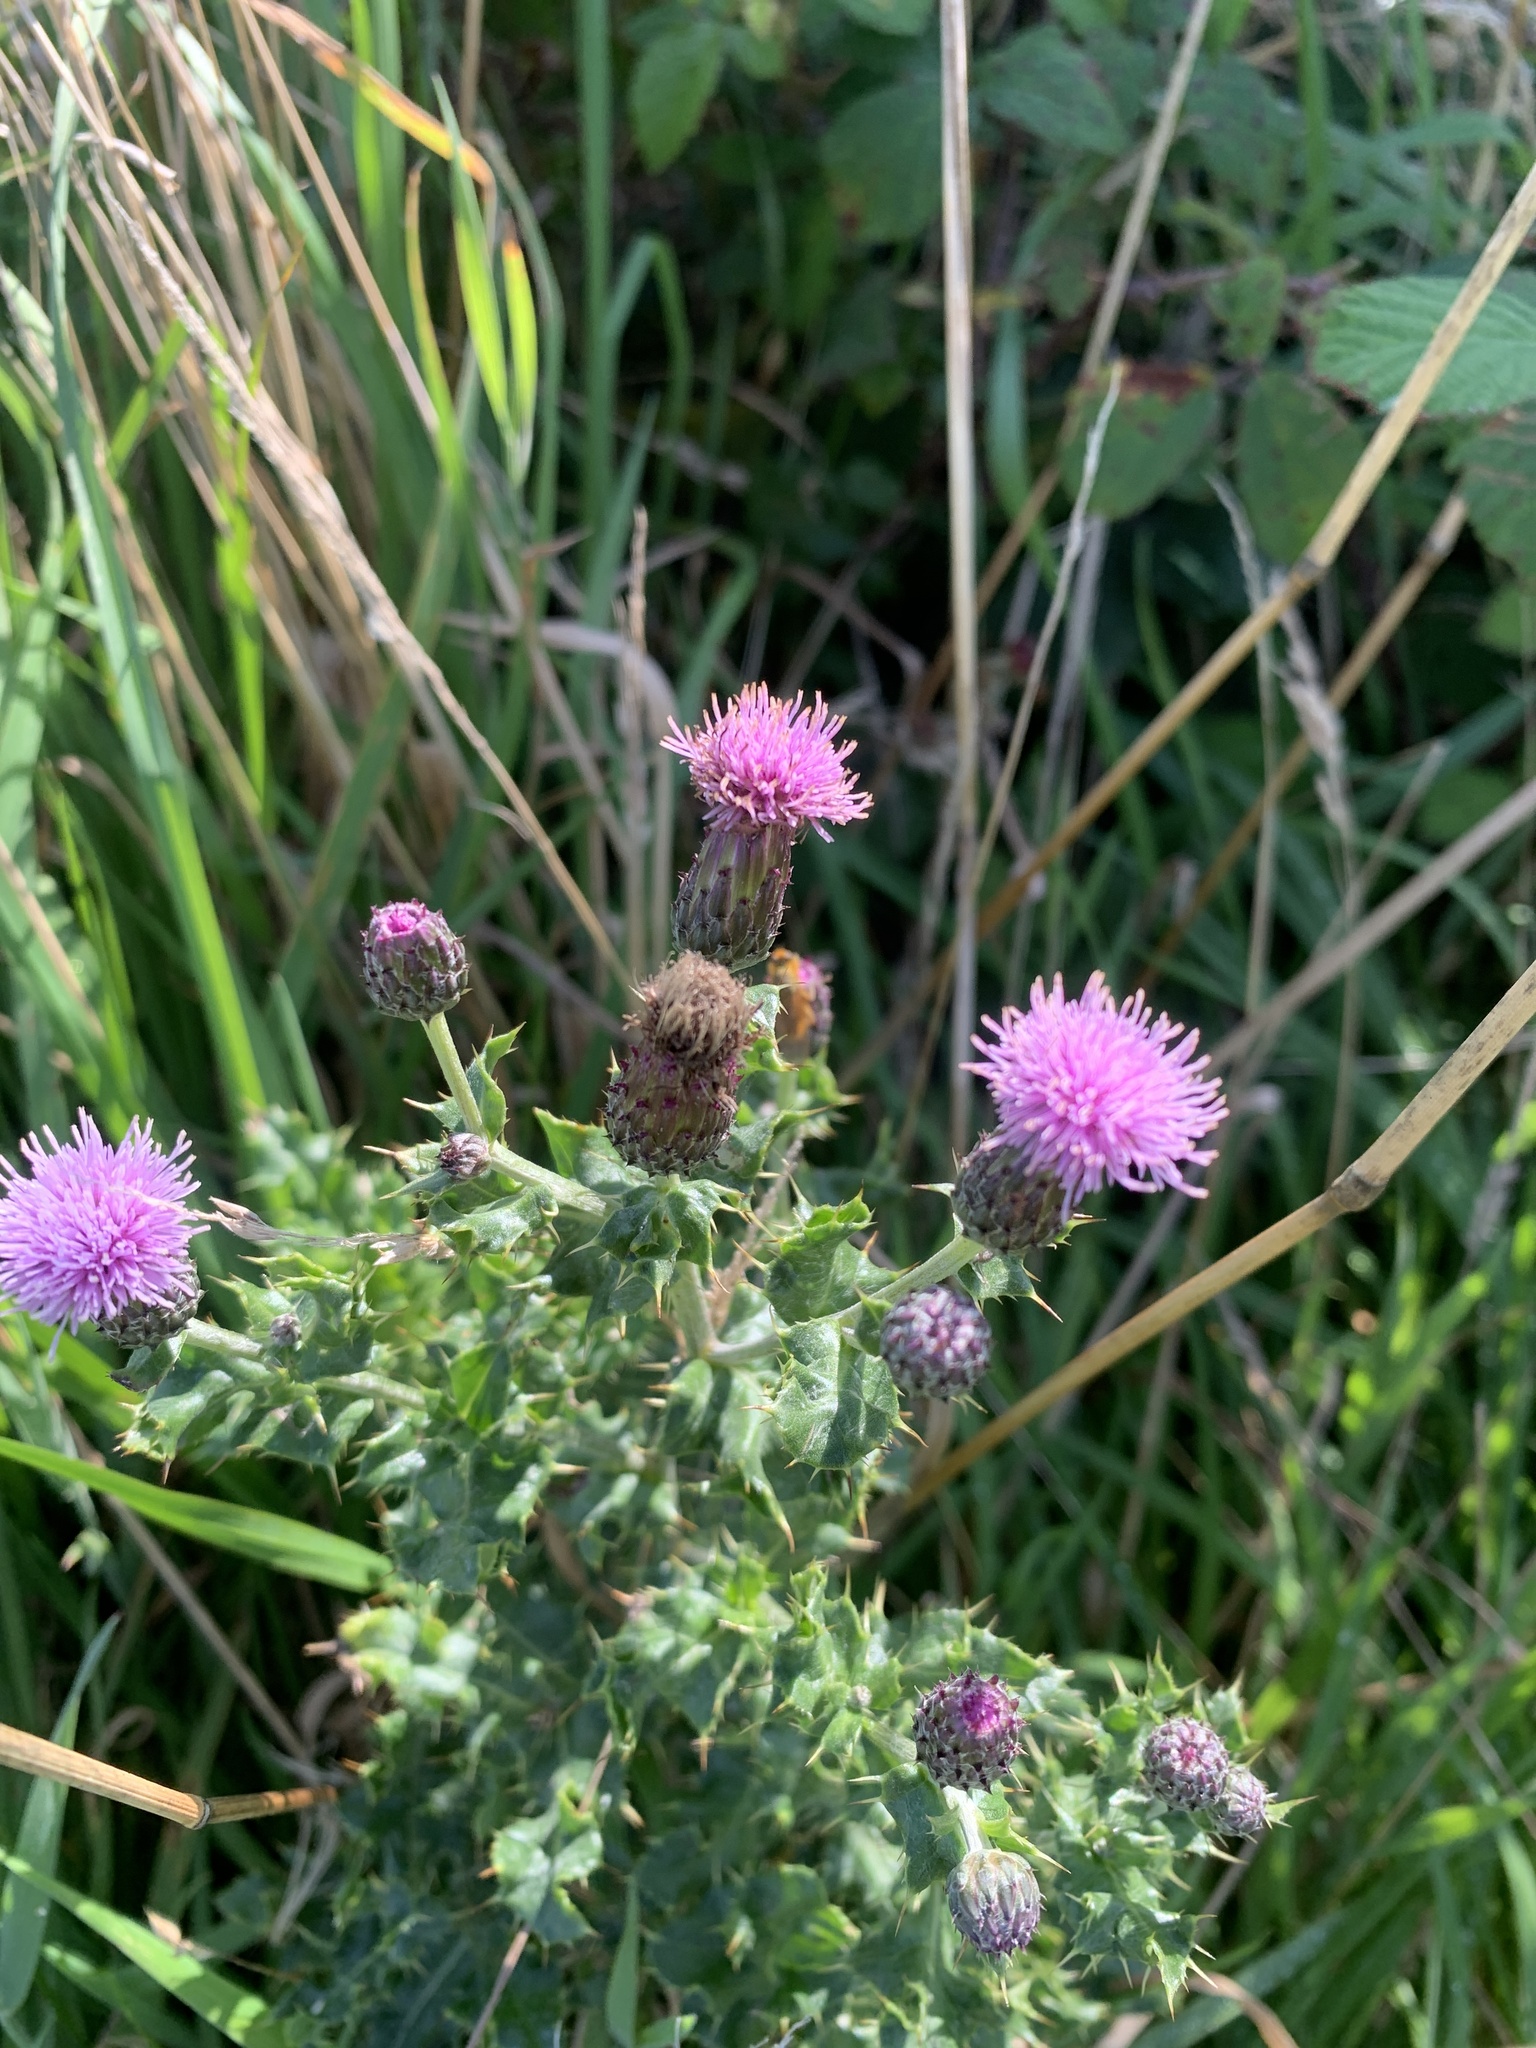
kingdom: Plantae
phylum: Tracheophyta
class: Magnoliopsida
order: Asterales
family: Asteraceae
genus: Cirsium
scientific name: Cirsium arvense
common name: Creeping thistle
